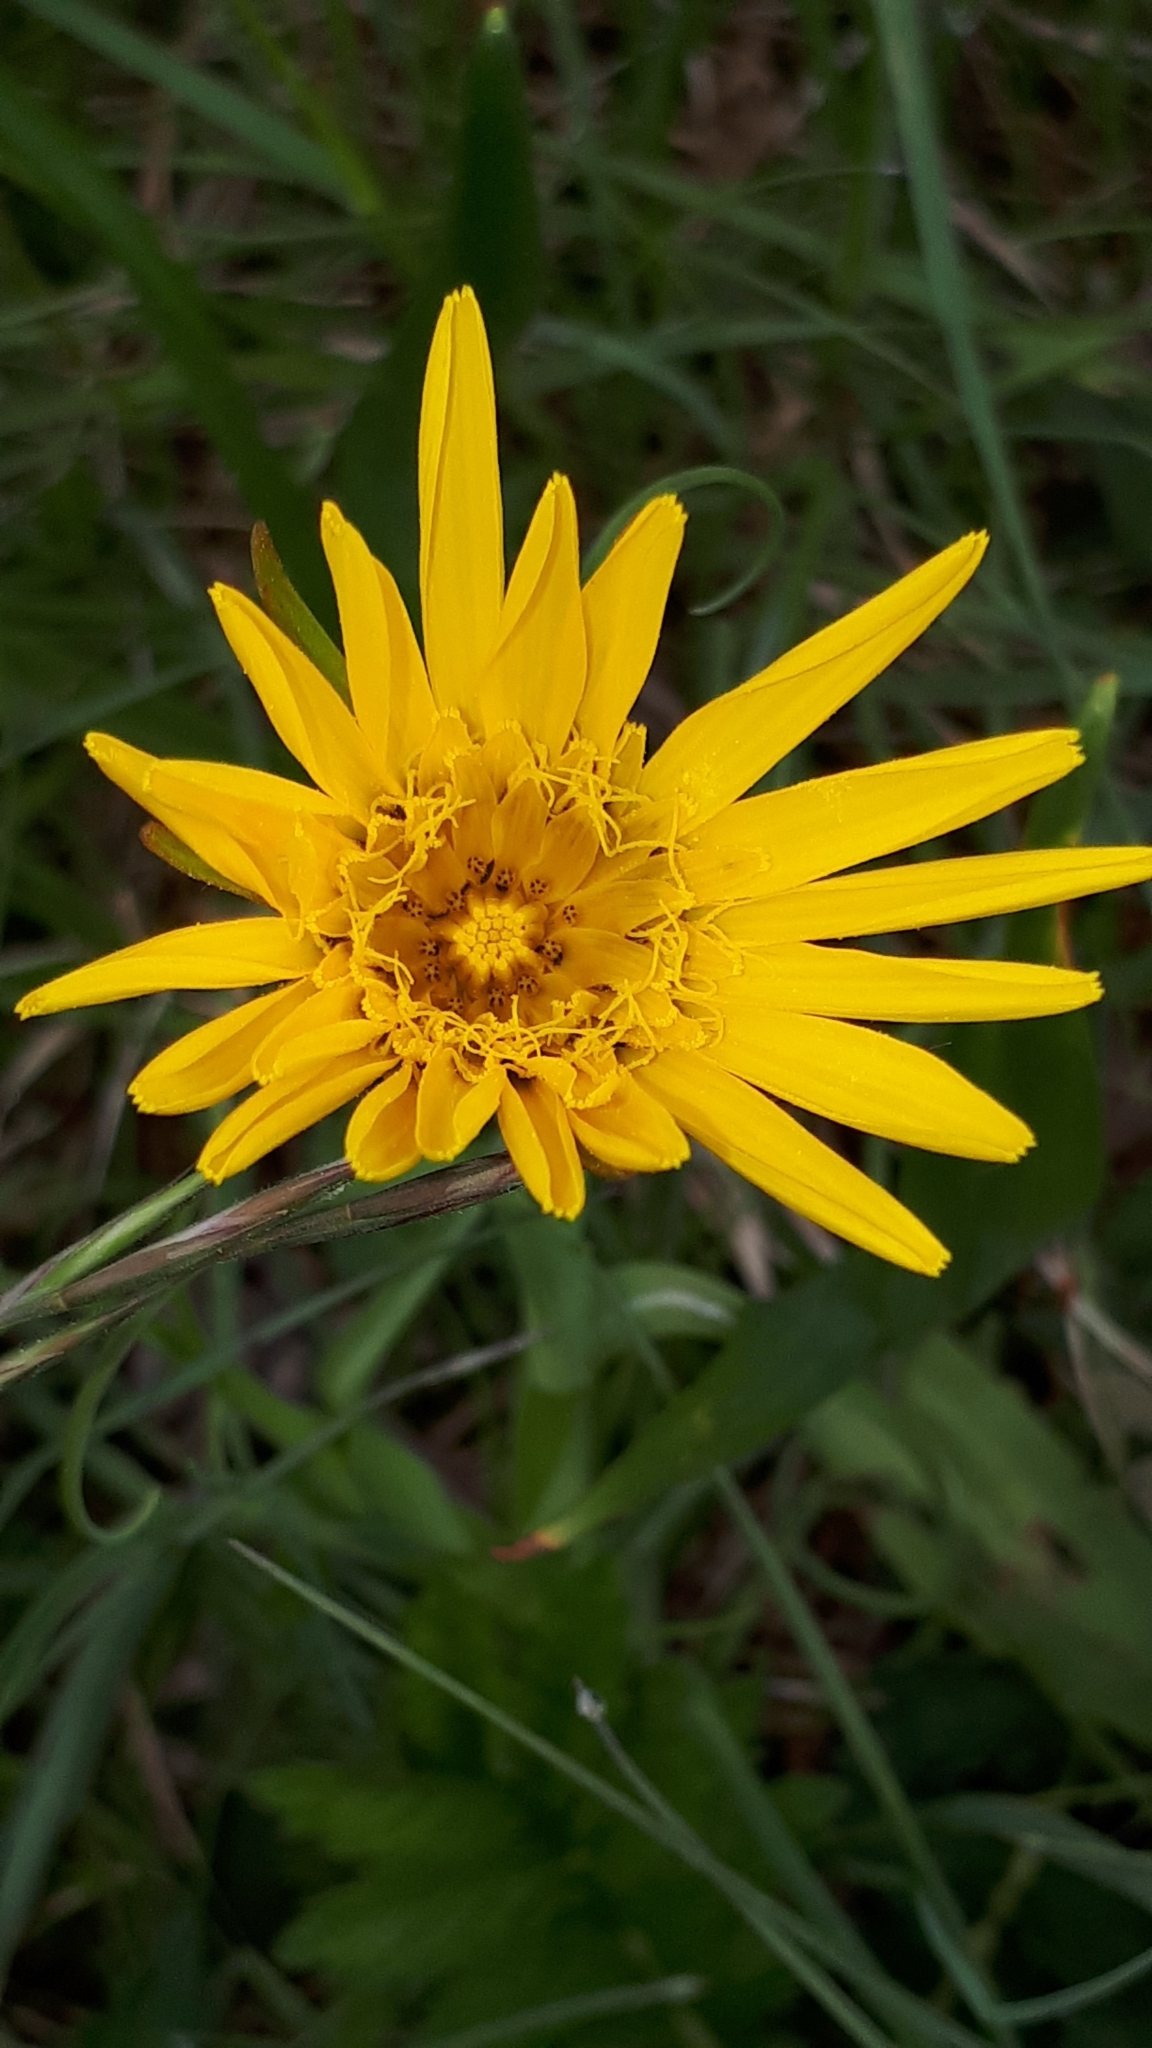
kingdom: Plantae
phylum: Tracheophyta
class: Magnoliopsida
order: Asterales
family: Asteraceae
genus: Tragopogon
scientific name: Tragopogon orientalis
